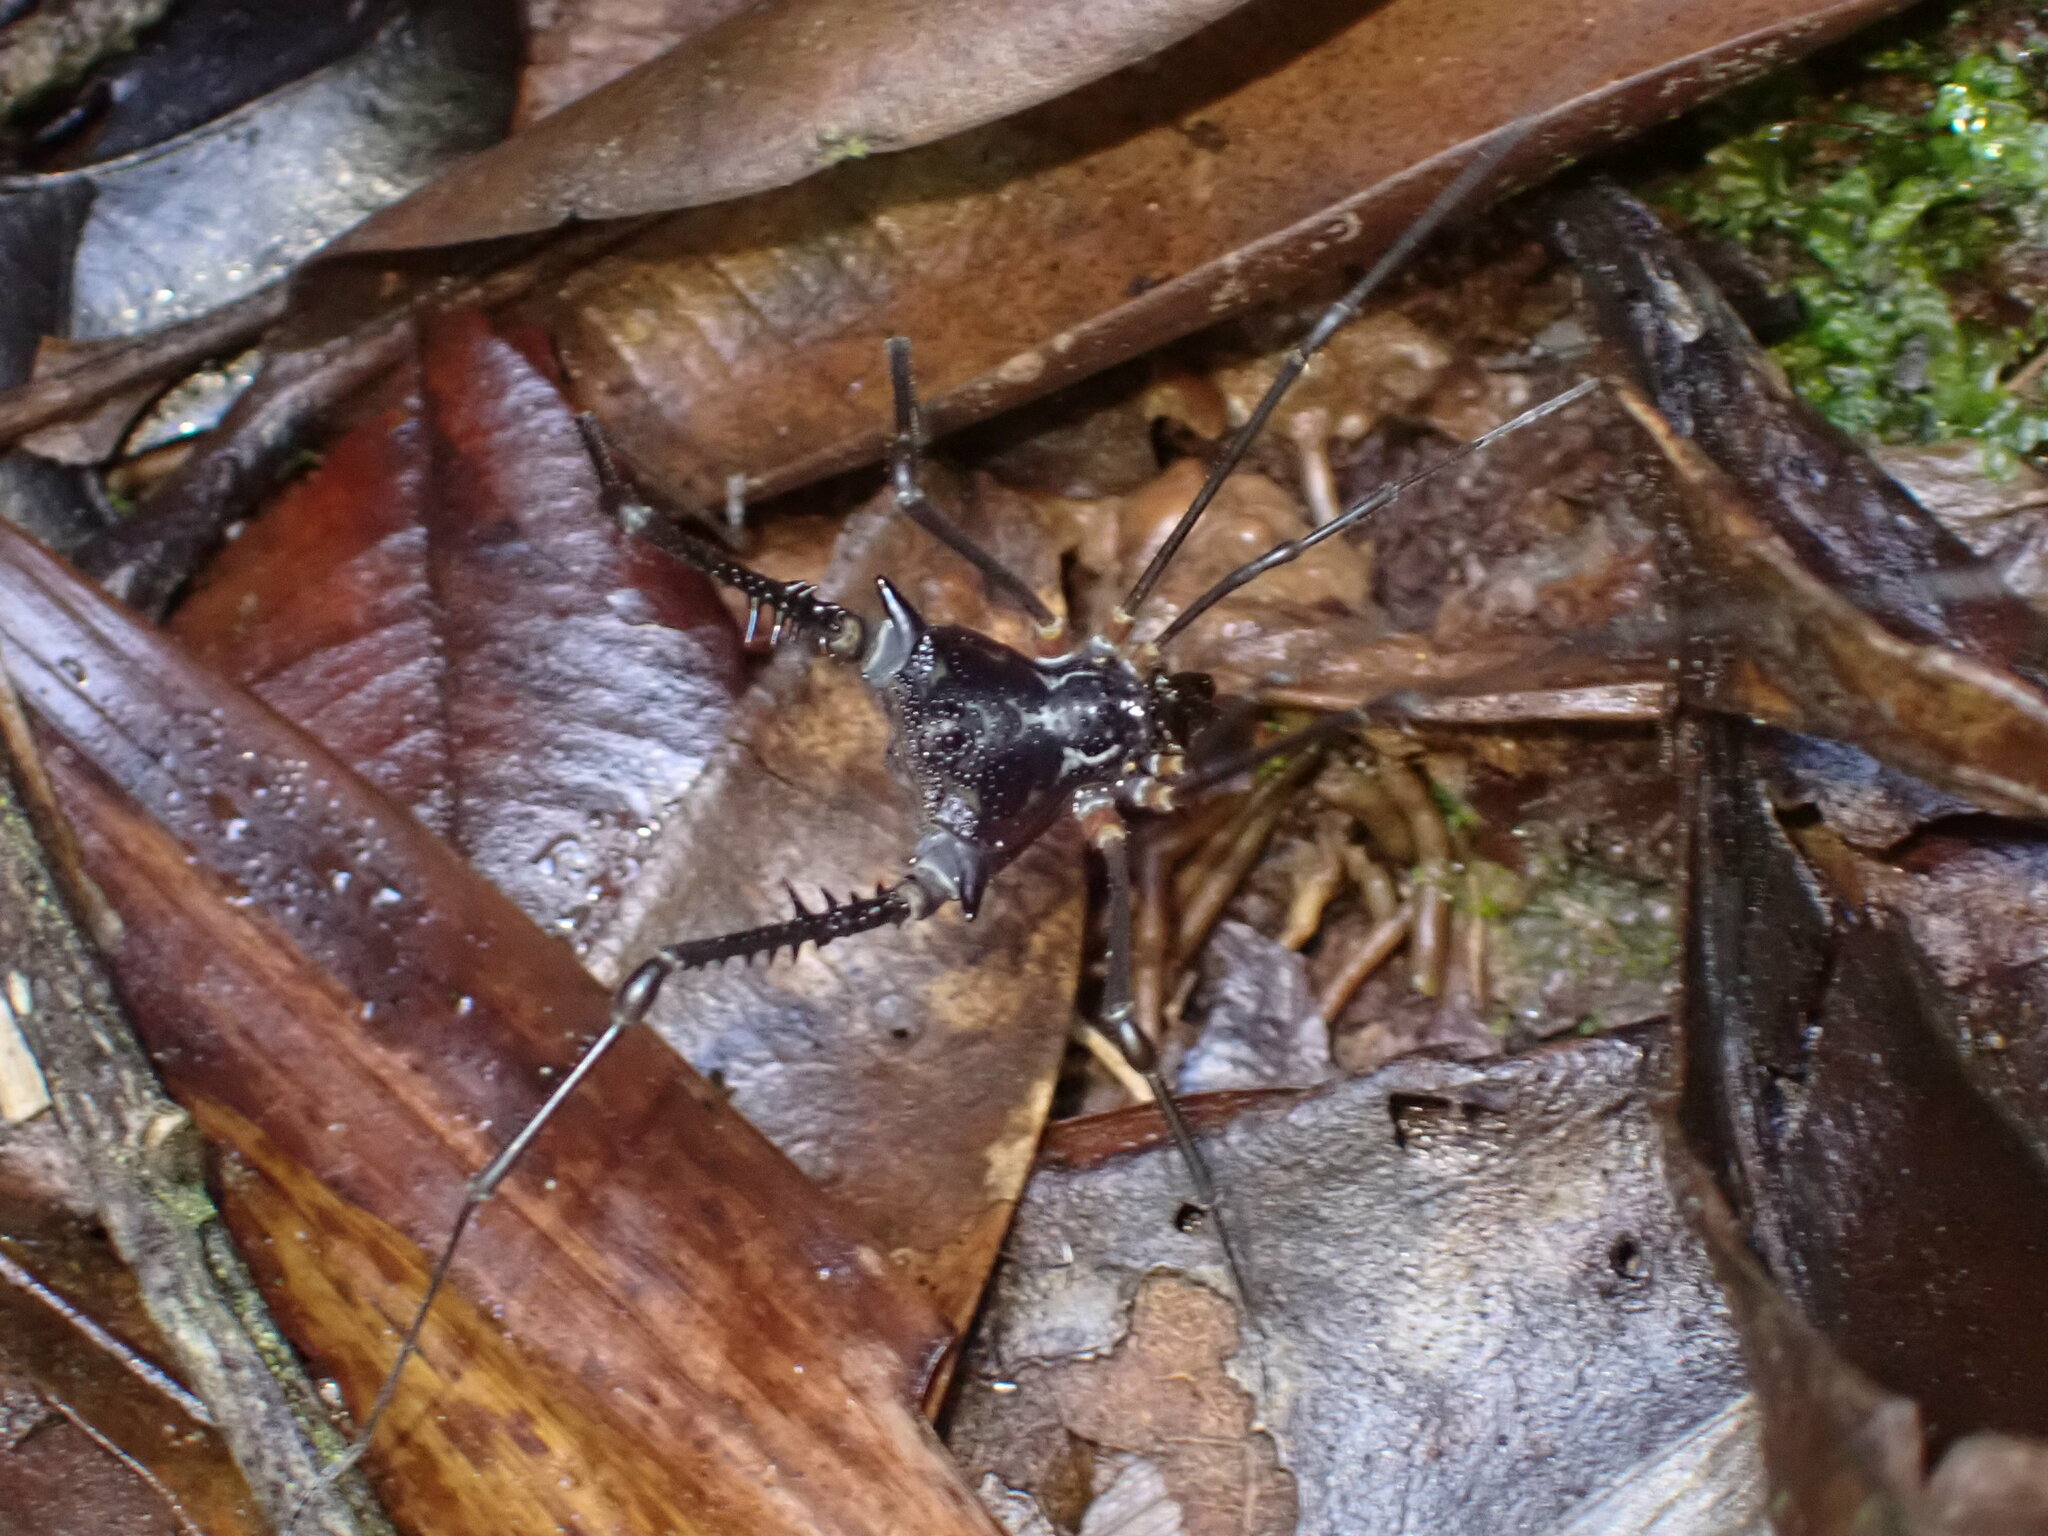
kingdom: Animalia
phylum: Arthropoda
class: Arachnida
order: Opiliones
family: Gonyleptidae
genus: Moreiranula
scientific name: Moreiranula saprophila
